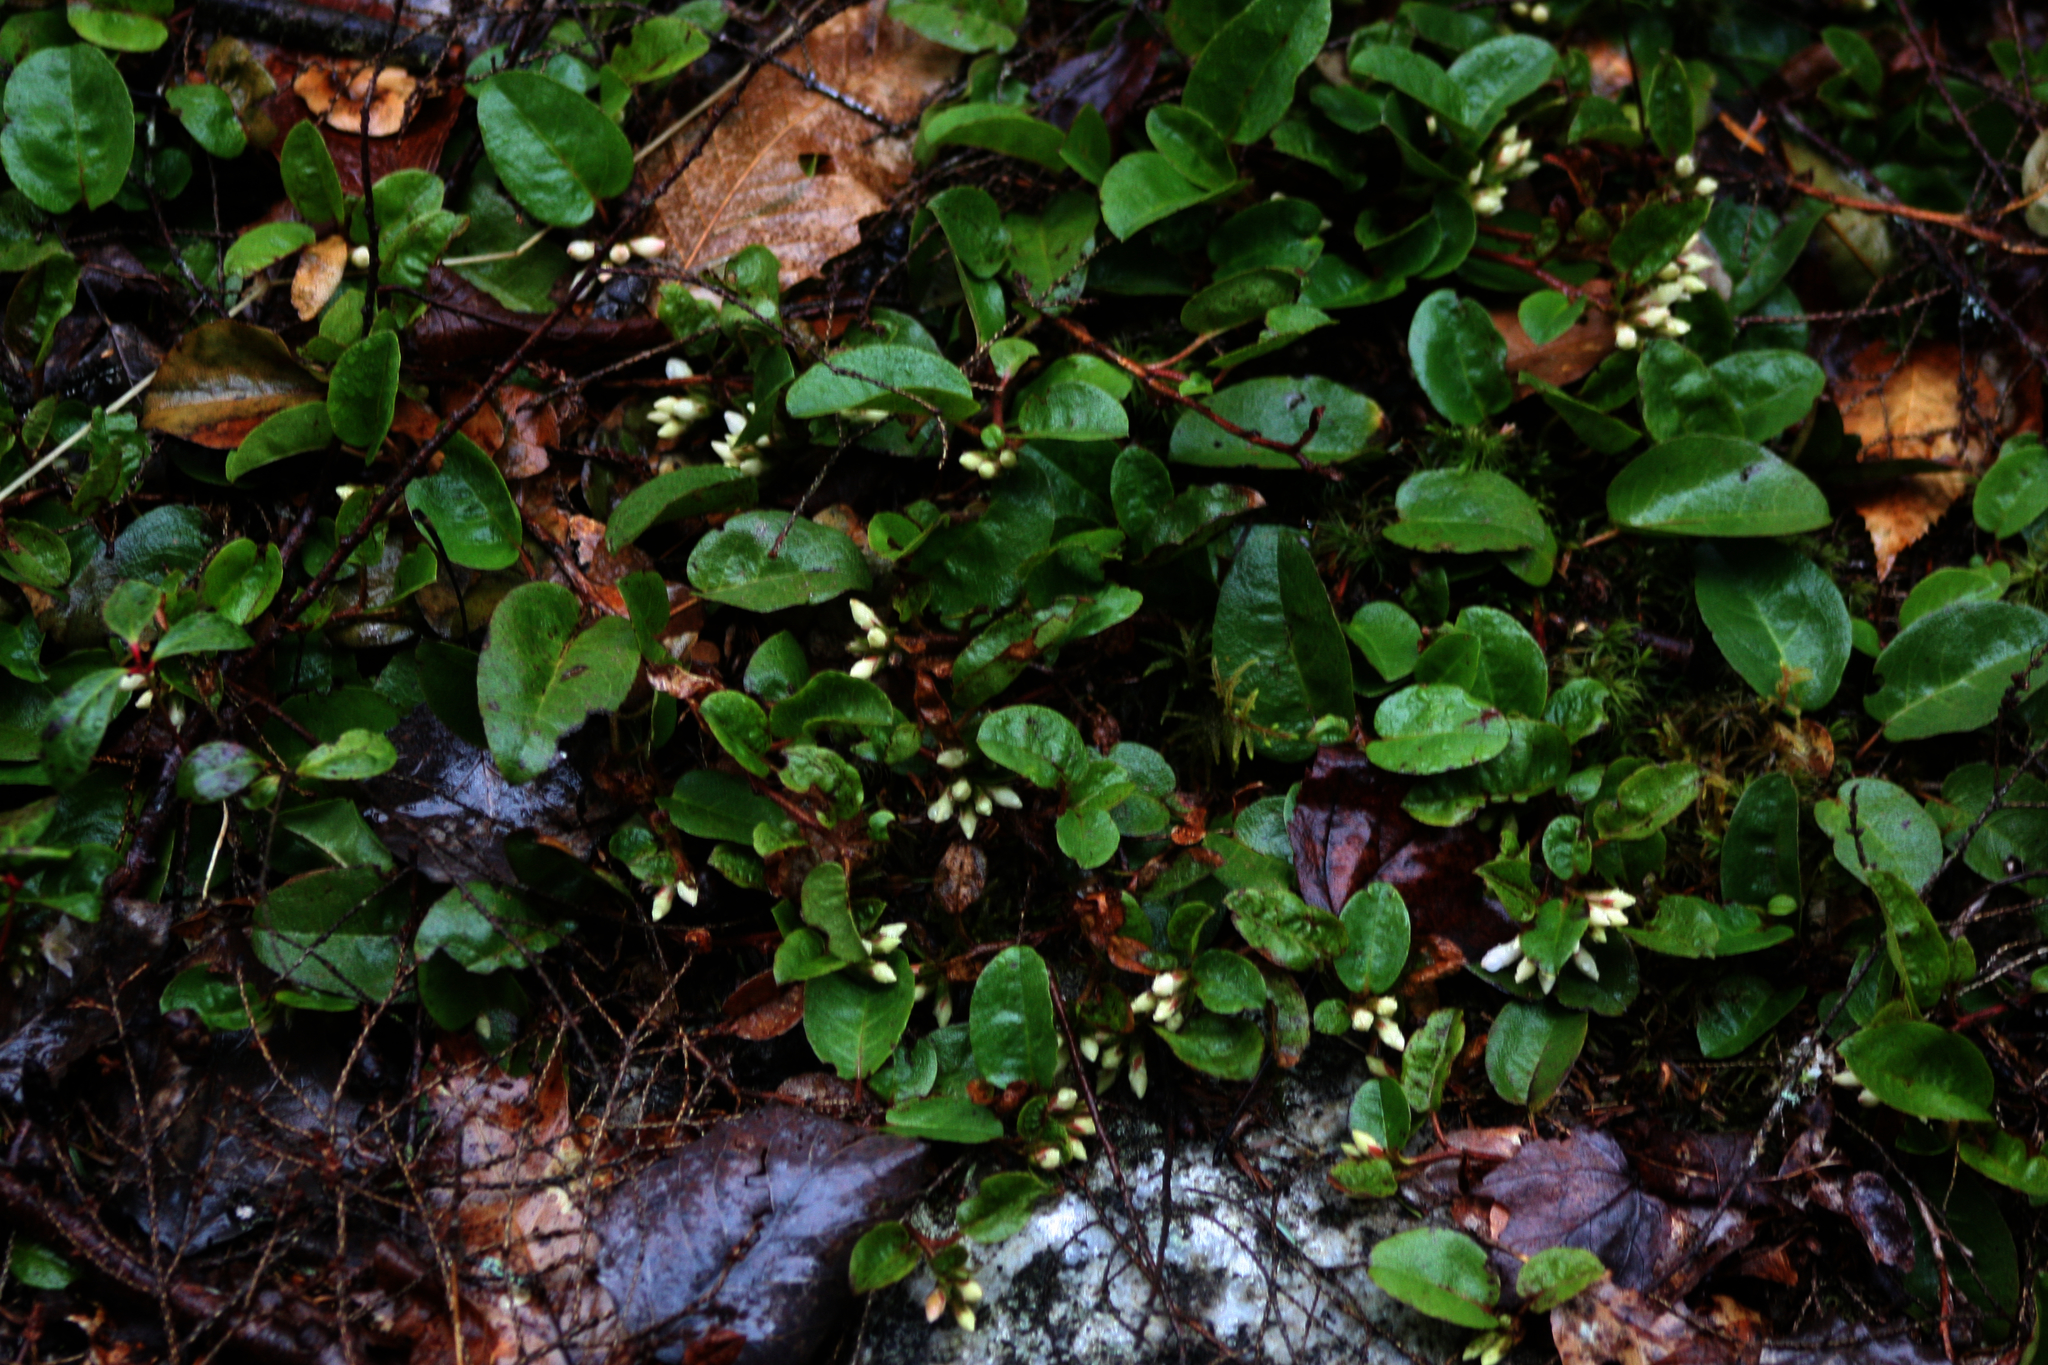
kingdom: Plantae
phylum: Tracheophyta
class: Magnoliopsida
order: Ericales
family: Ericaceae
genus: Epigaea
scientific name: Epigaea repens
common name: Gravelroot
